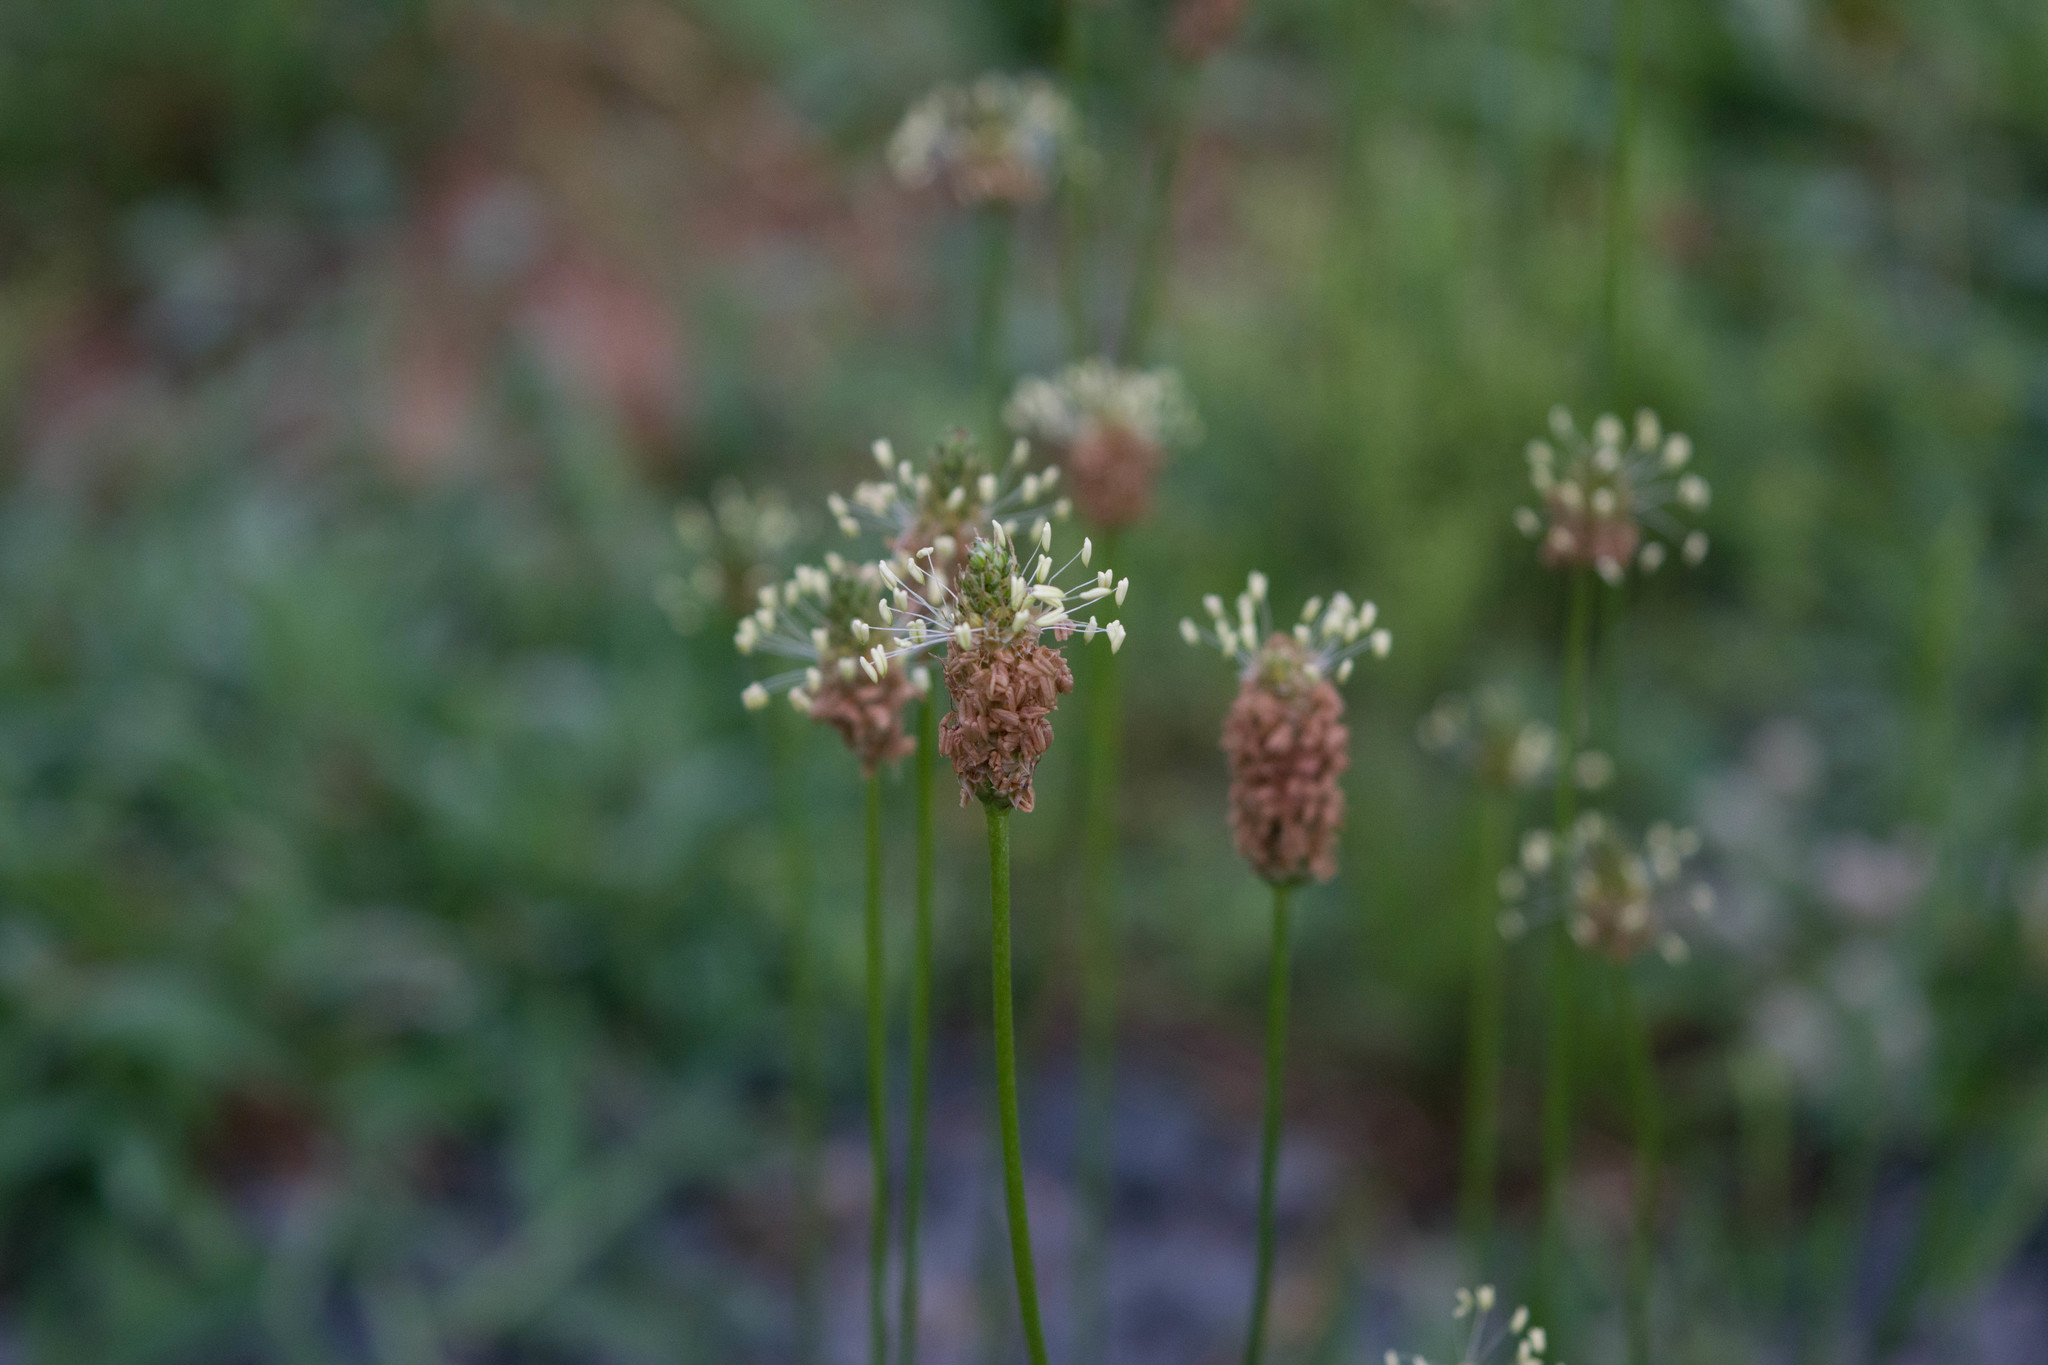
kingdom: Plantae
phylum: Tracheophyta
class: Magnoliopsida
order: Lamiales
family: Plantaginaceae
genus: Plantago
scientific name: Plantago lanceolata
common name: Ribwort plantain
